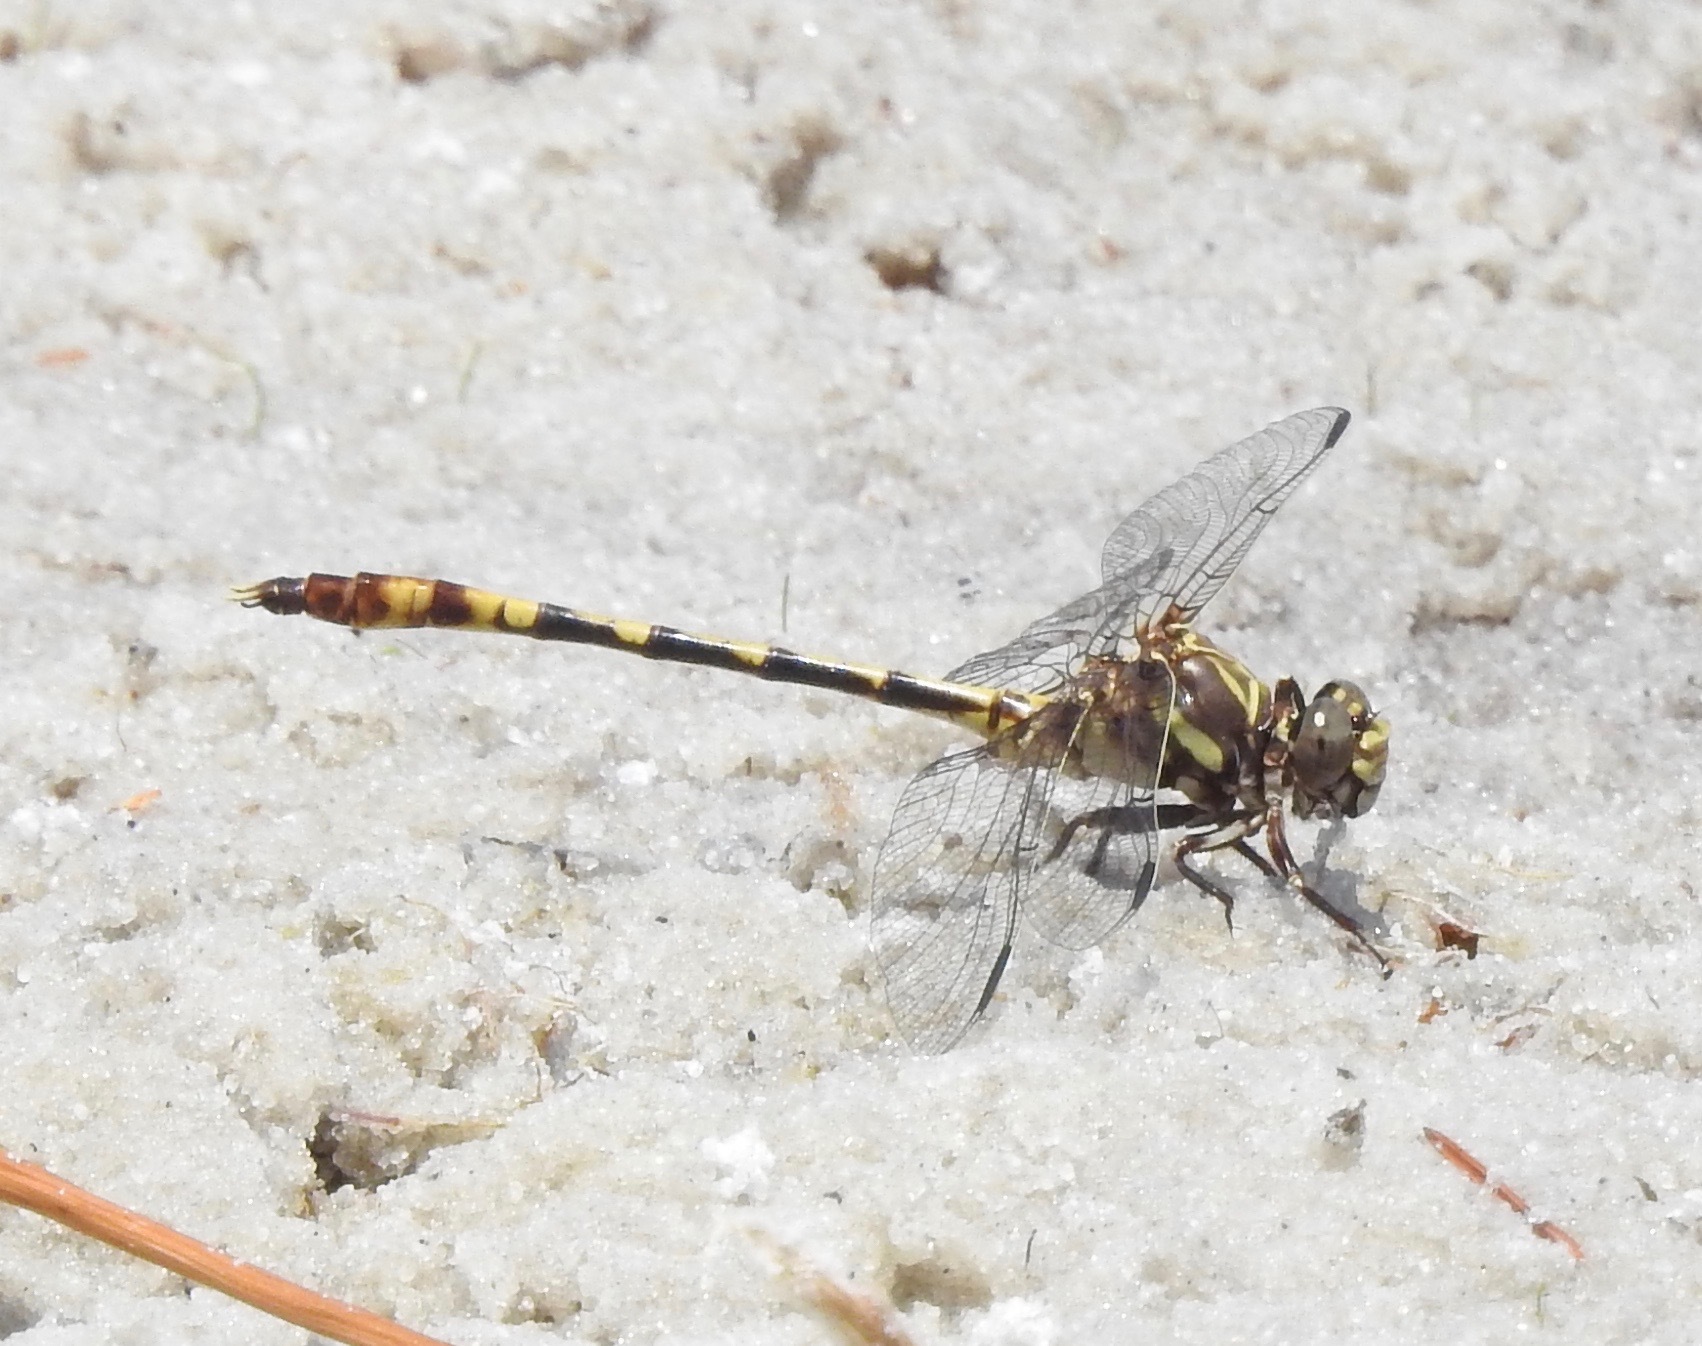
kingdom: Animalia
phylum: Arthropoda
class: Insecta
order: Odonata
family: Gomphidae
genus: Progomphus
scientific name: Progomphus alachuensis
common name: Tawny sanddragon
